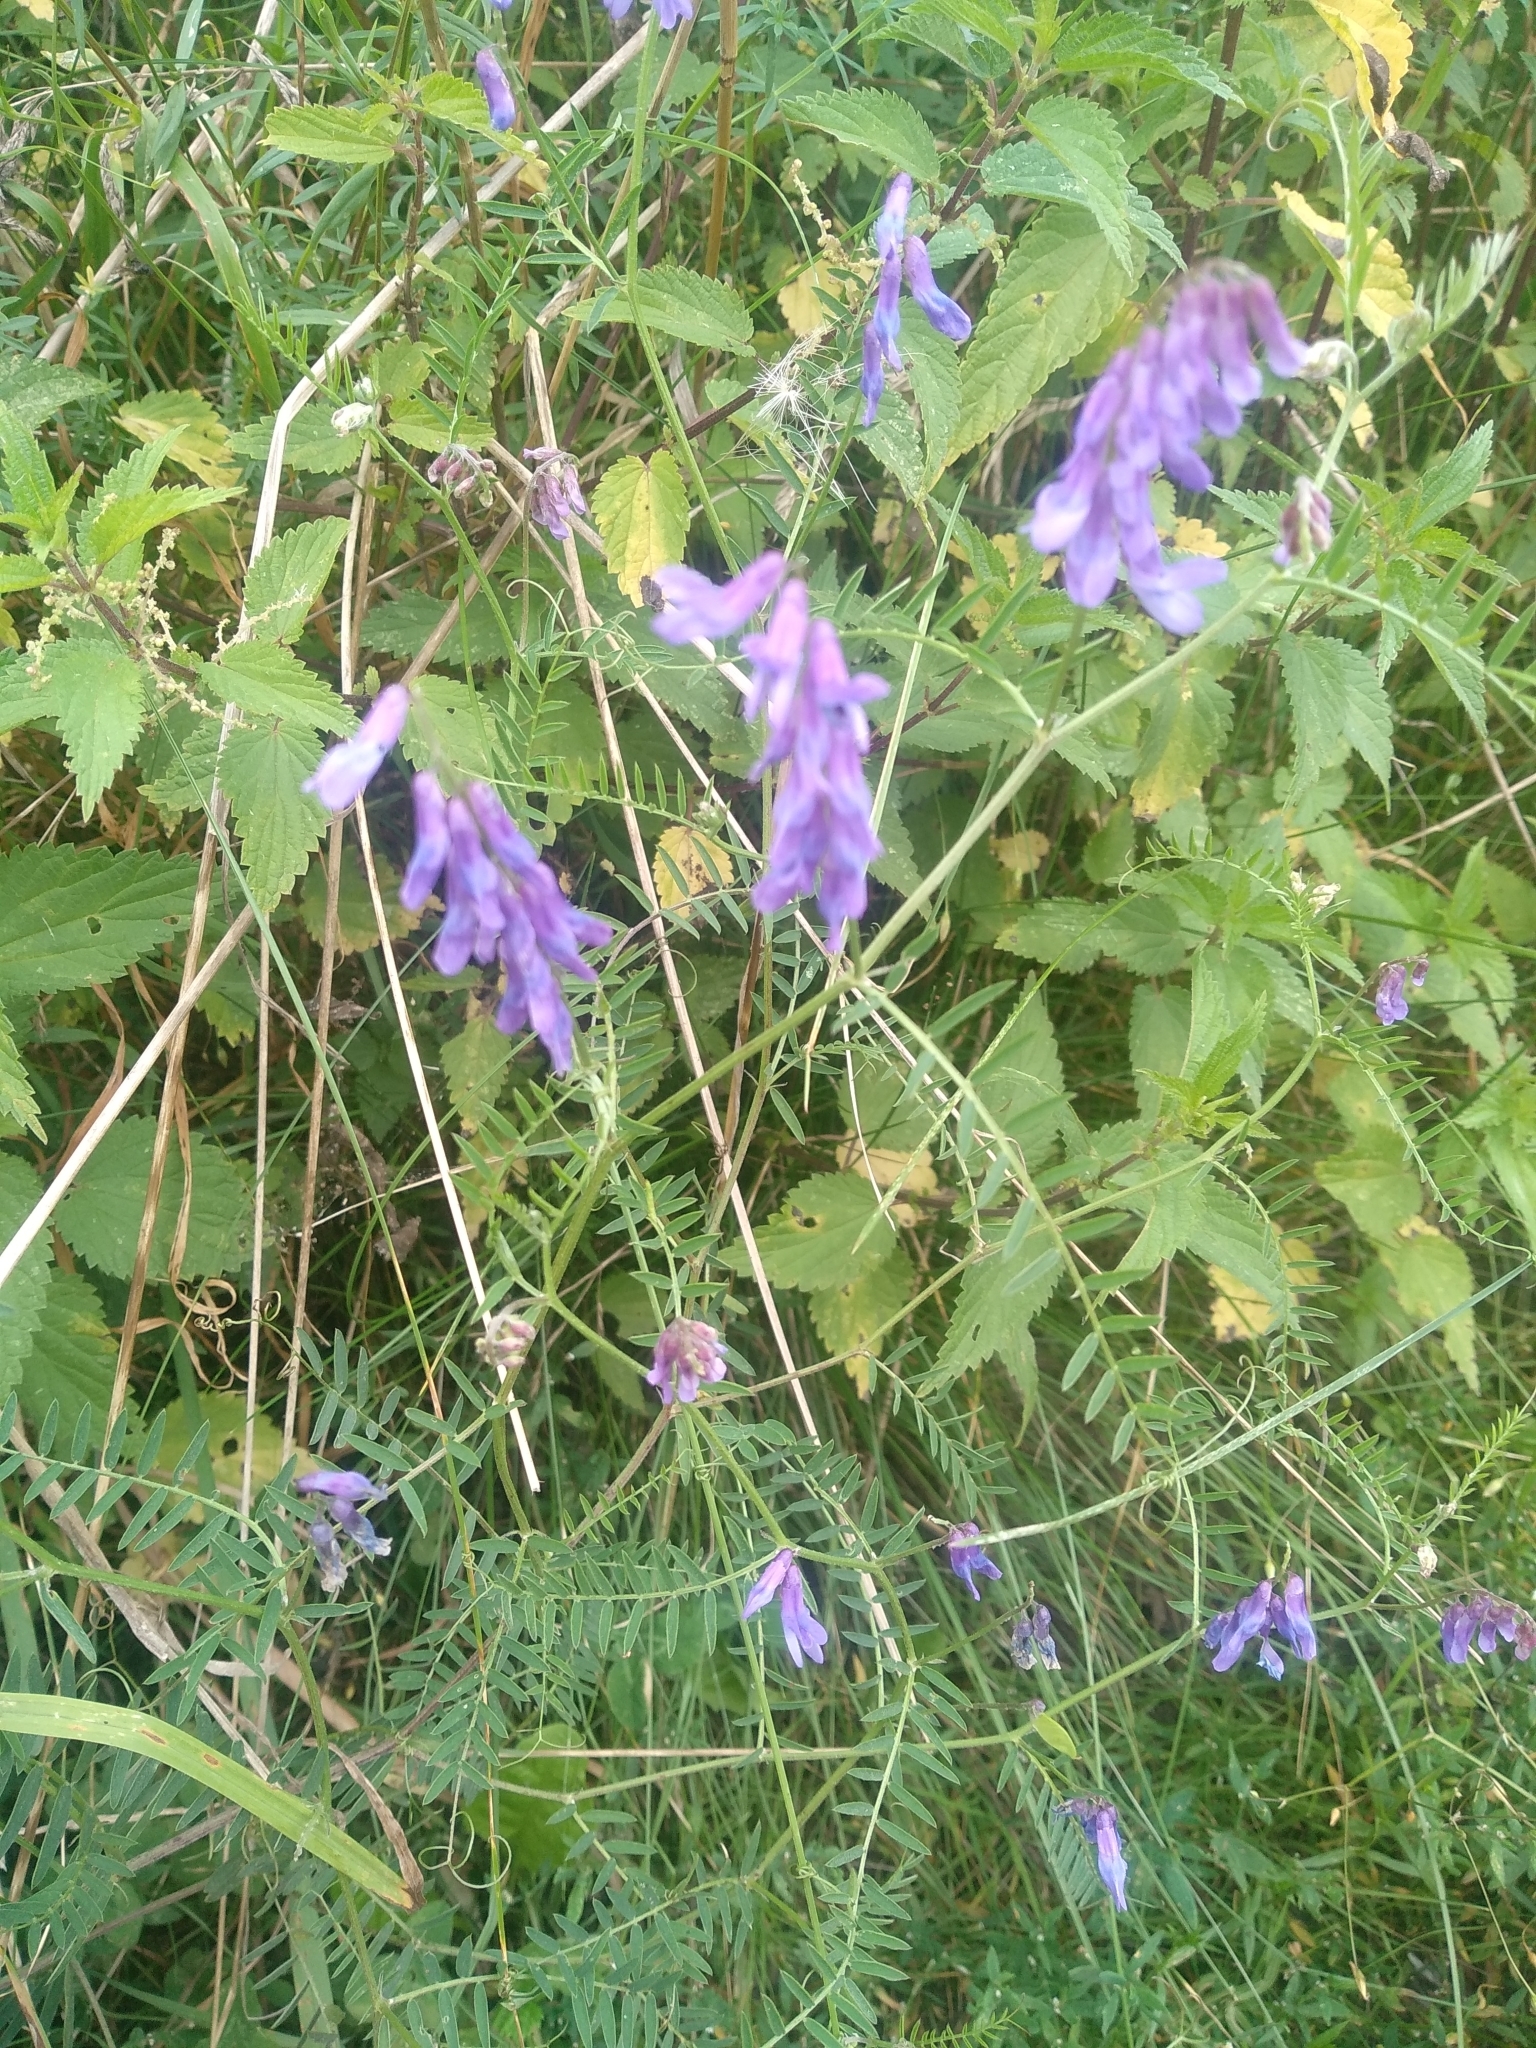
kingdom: Plantae
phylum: Tracheophyta
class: Magnoliopsida
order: Fabales
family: Fabaceae
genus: Vicia
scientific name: Vicia cracca
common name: Bird vetch
